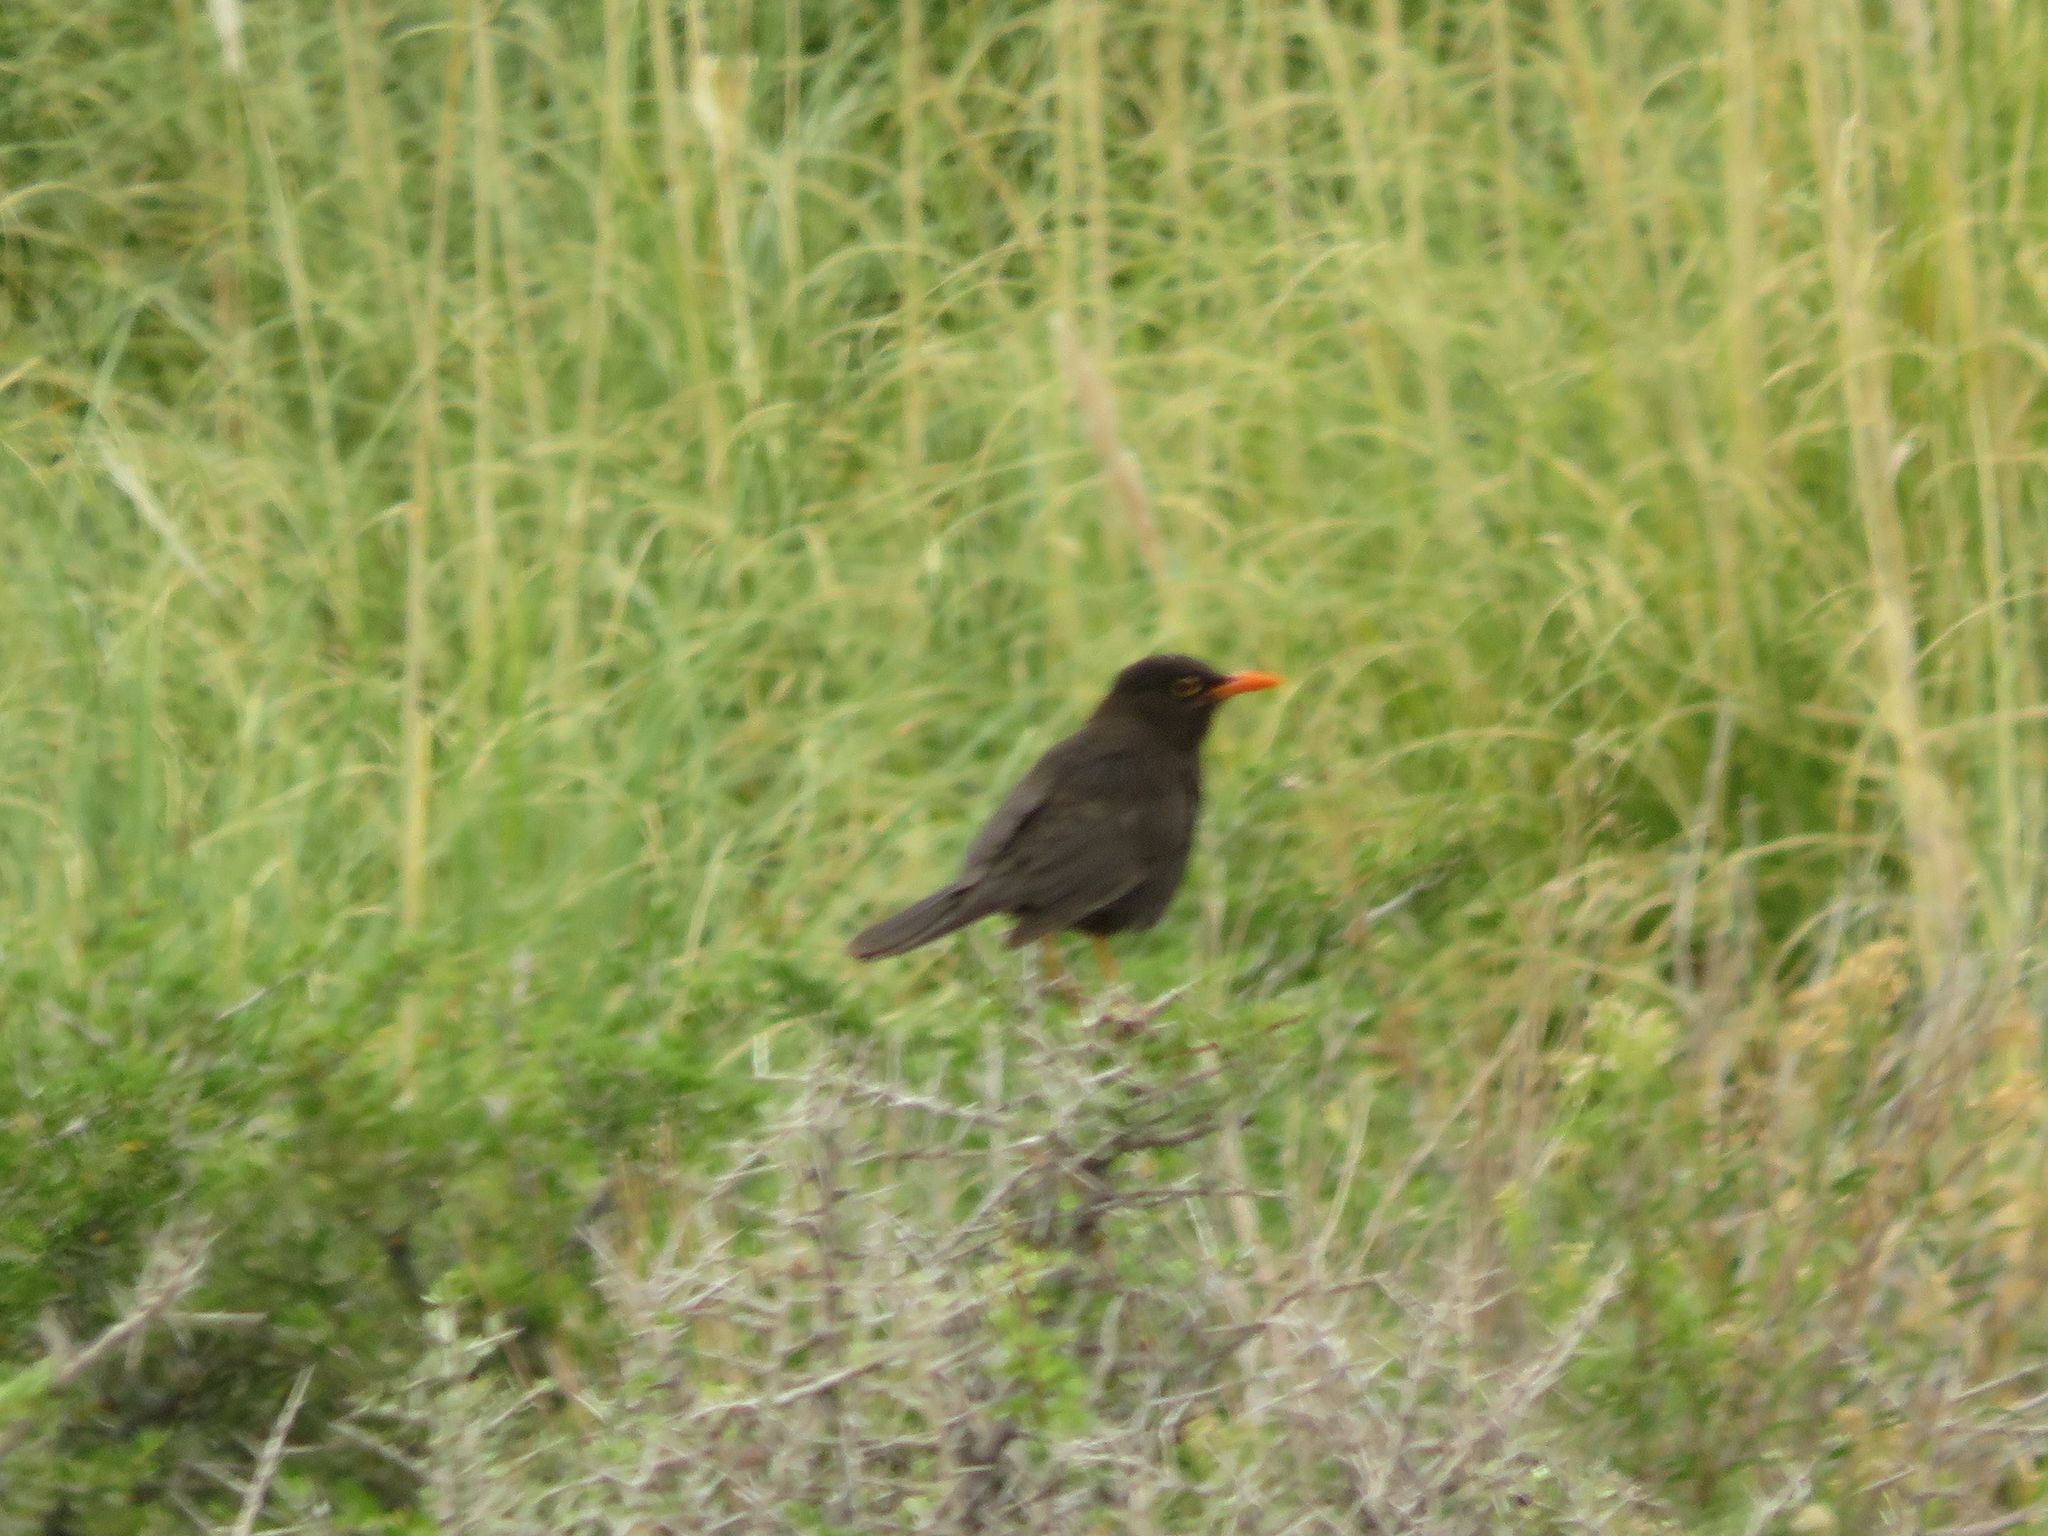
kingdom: Animalia
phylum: Chordata
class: Aves
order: Passeriformes
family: Turdidae
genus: Turdus
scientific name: Turdus chiguanco
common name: Chiguanco thrush
